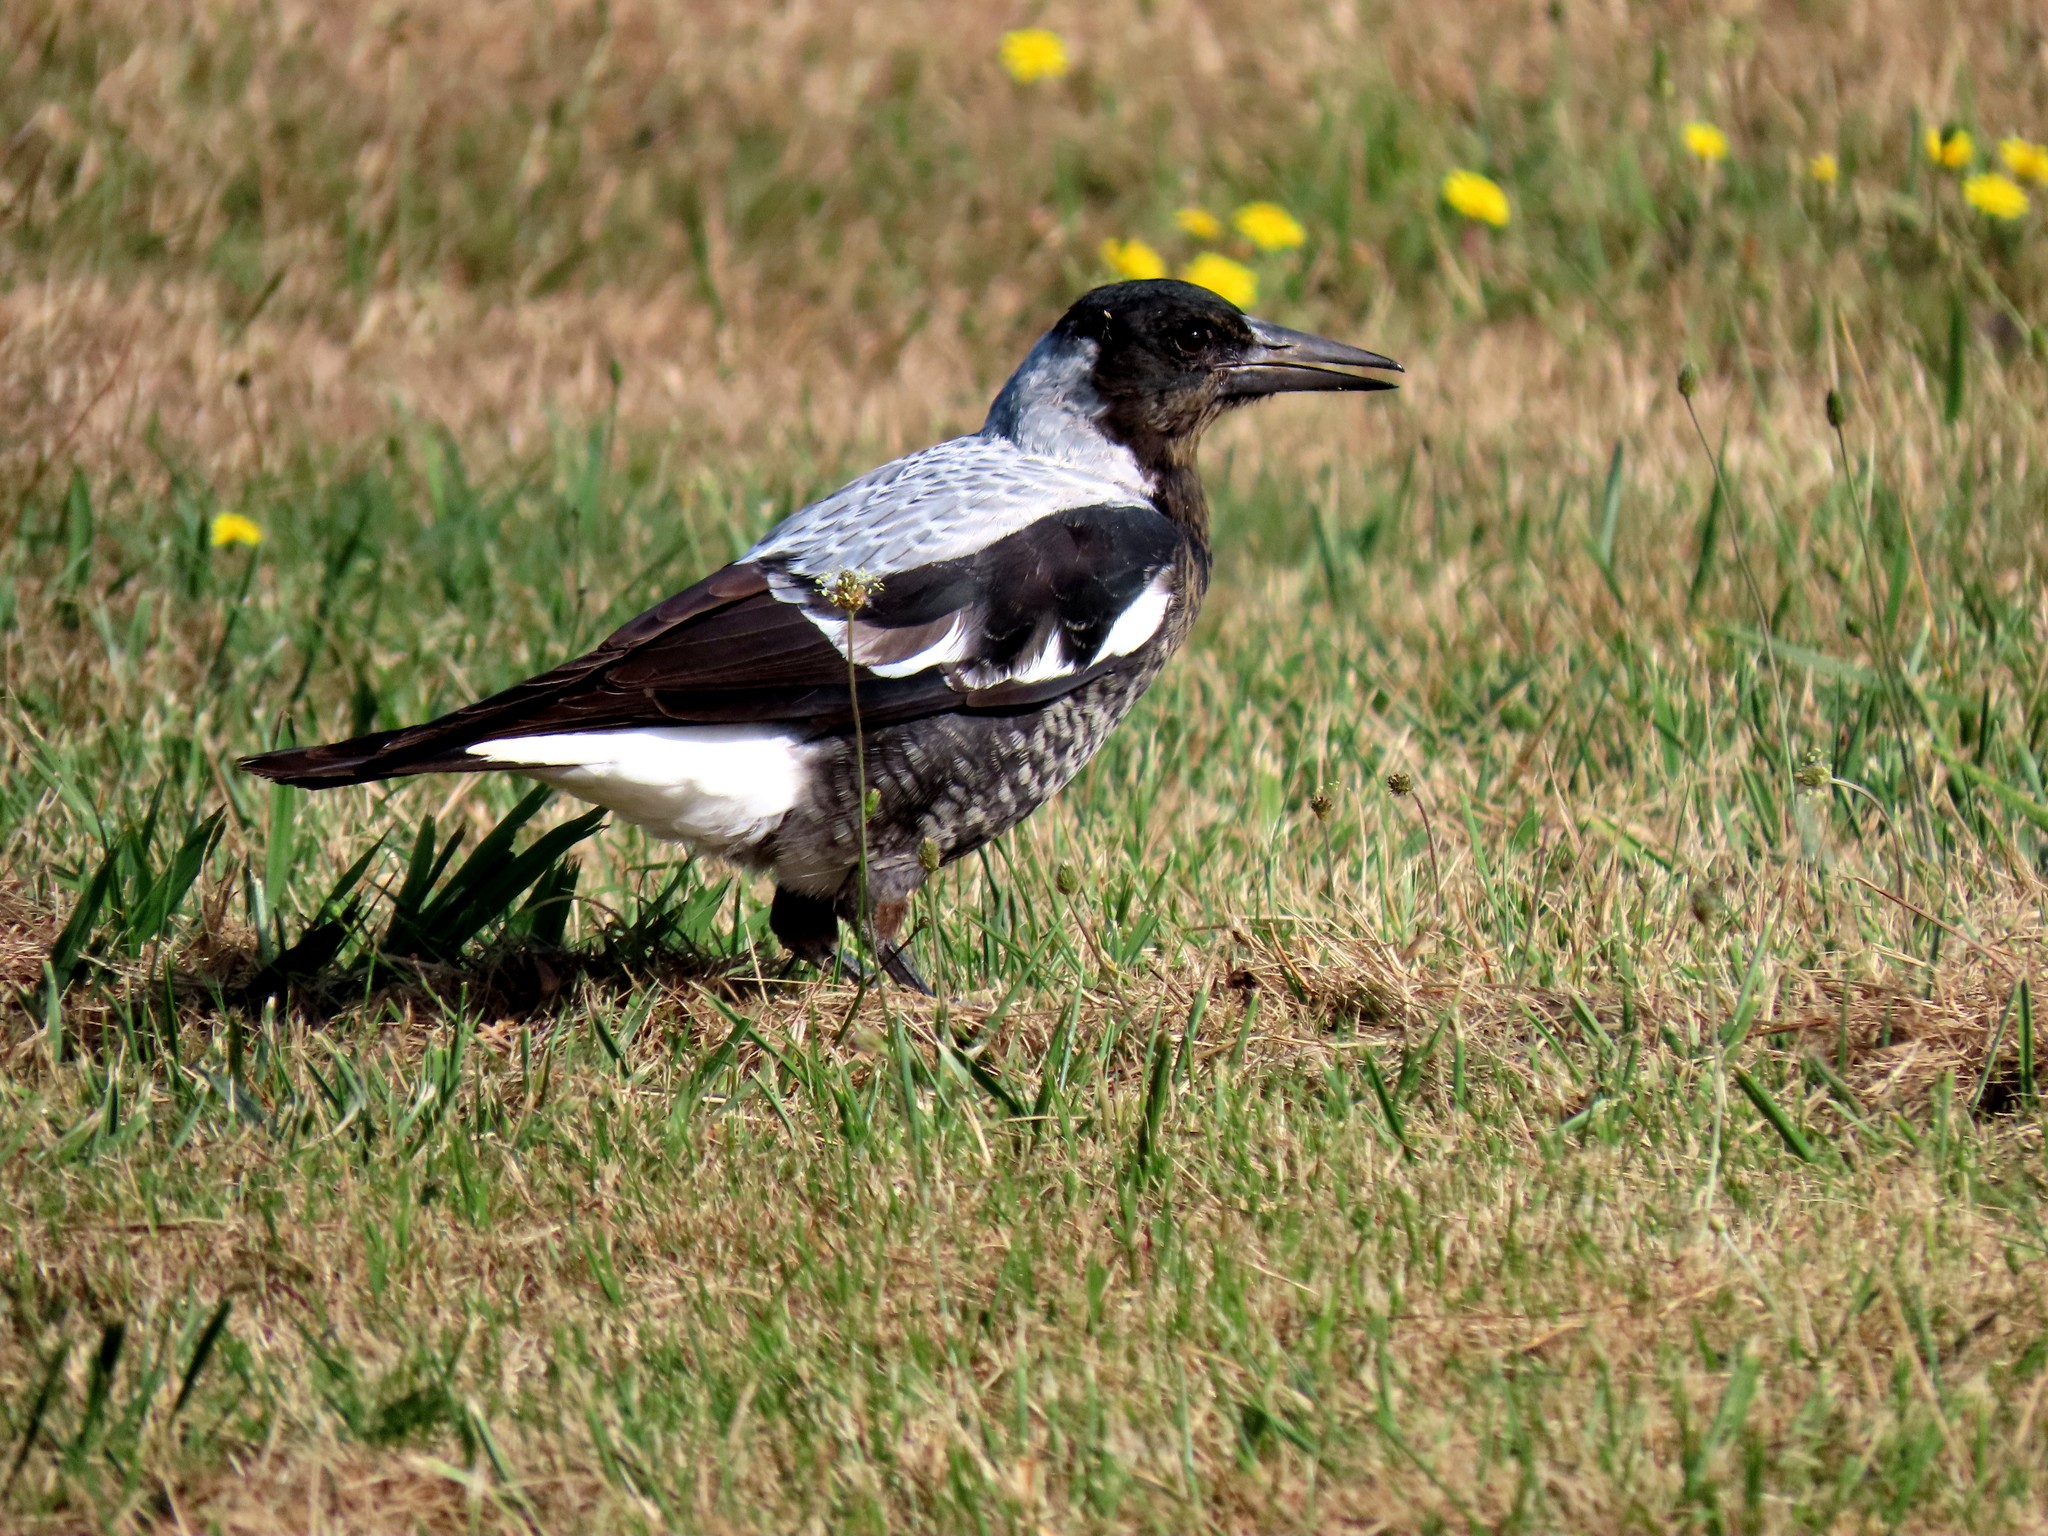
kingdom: Animalia
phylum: Chordata
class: Aves
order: Passeriformes
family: Cracticidae
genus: Gymnorhina
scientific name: Gymnorhina tibicen
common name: Australian magpie
